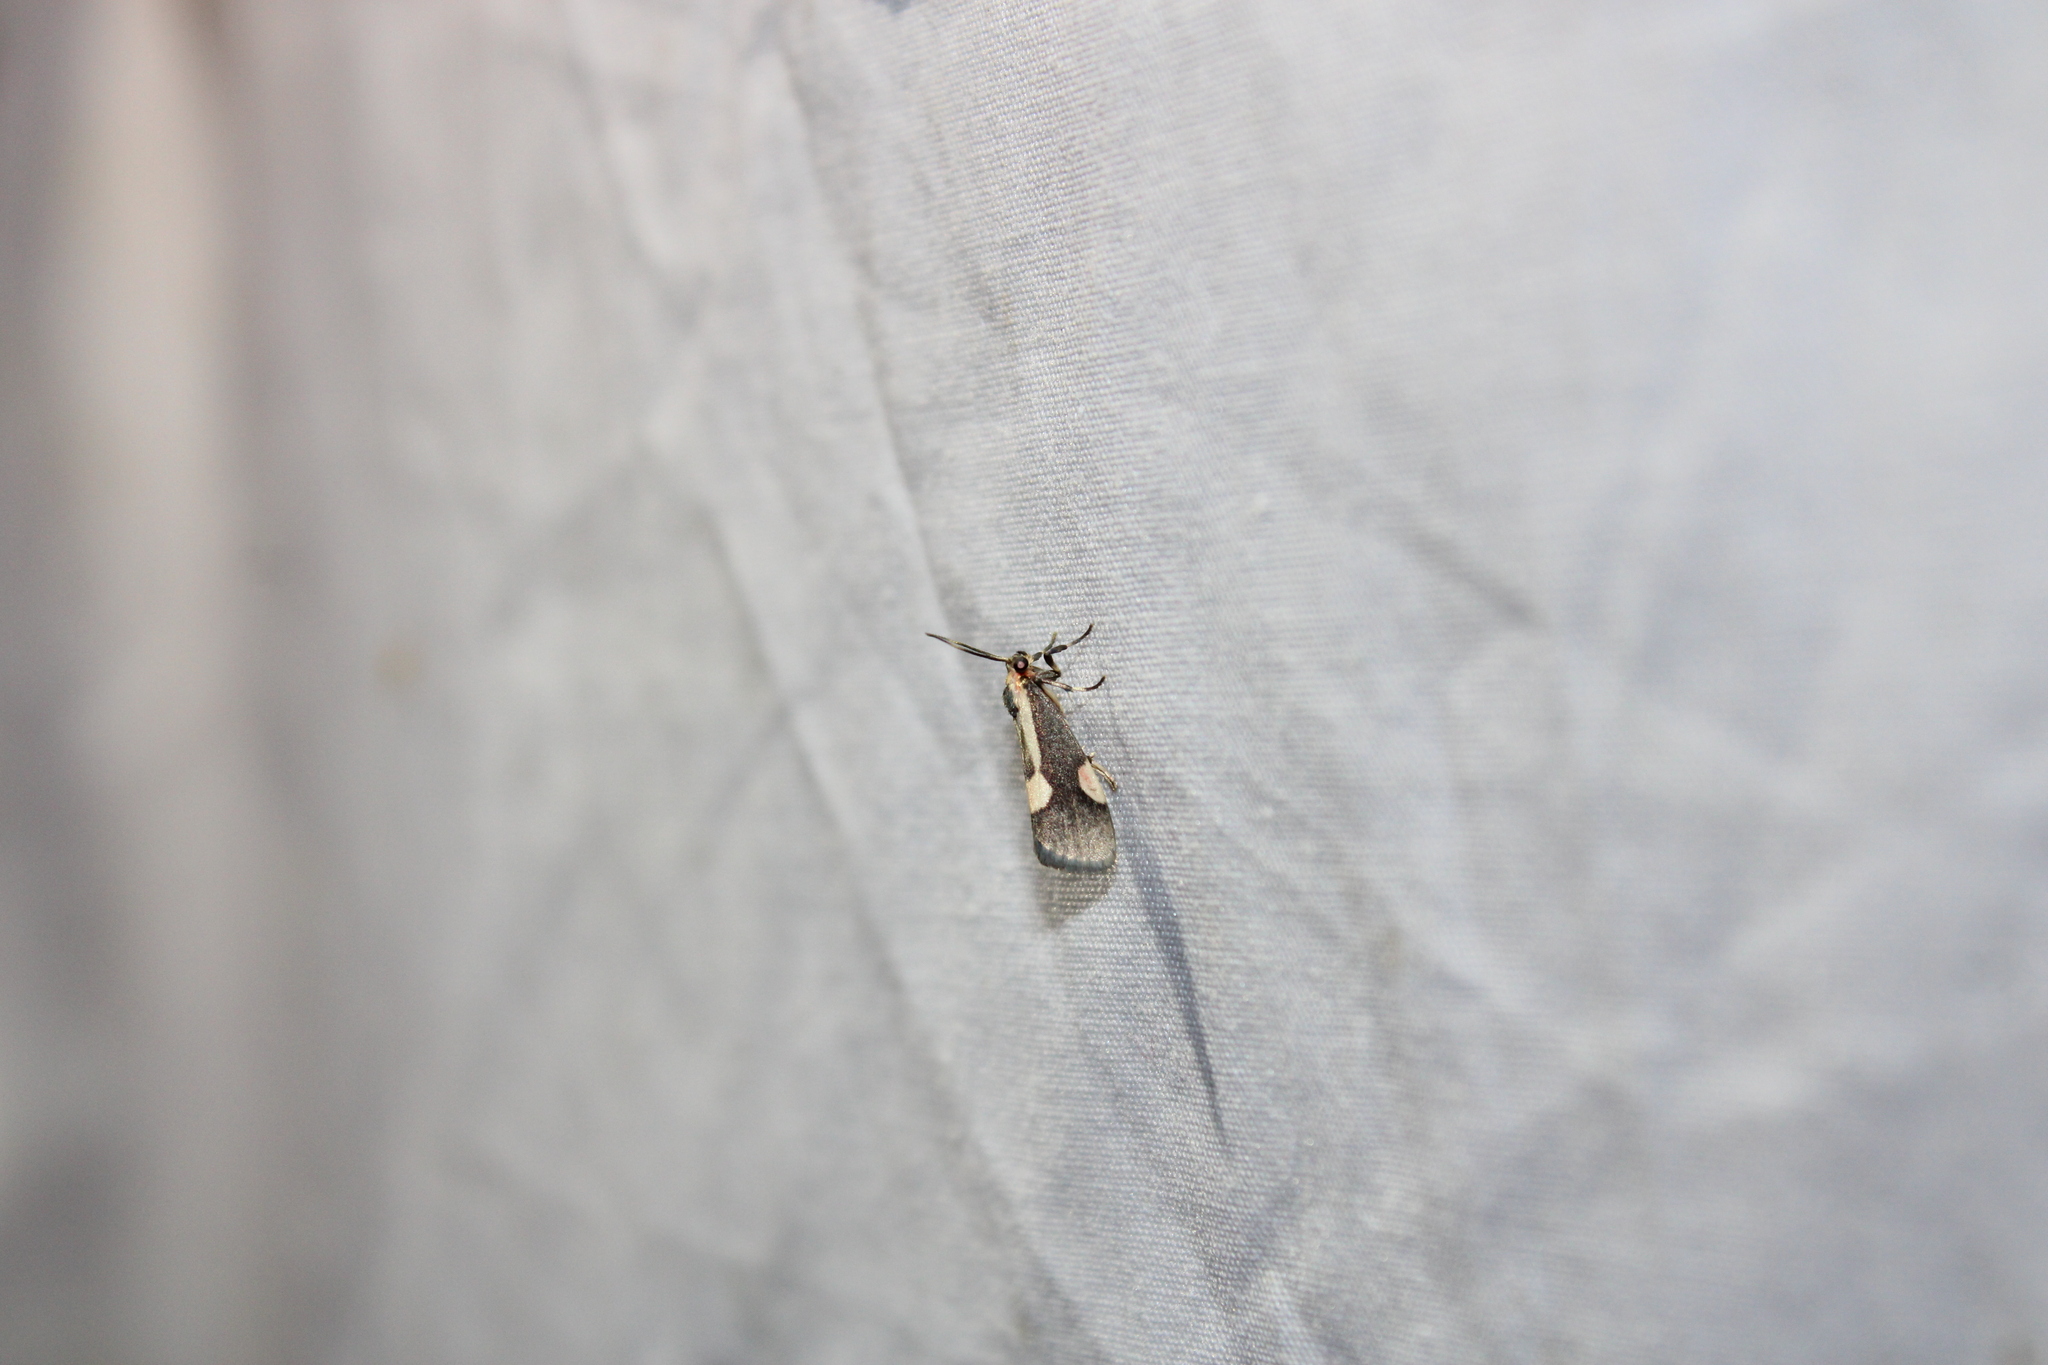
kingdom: Animalia
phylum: Arthropoda
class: Insecta
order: Lepidoptera
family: Erebidae
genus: Cisthene
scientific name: Cisthene packardii
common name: Packard's lichen moth
